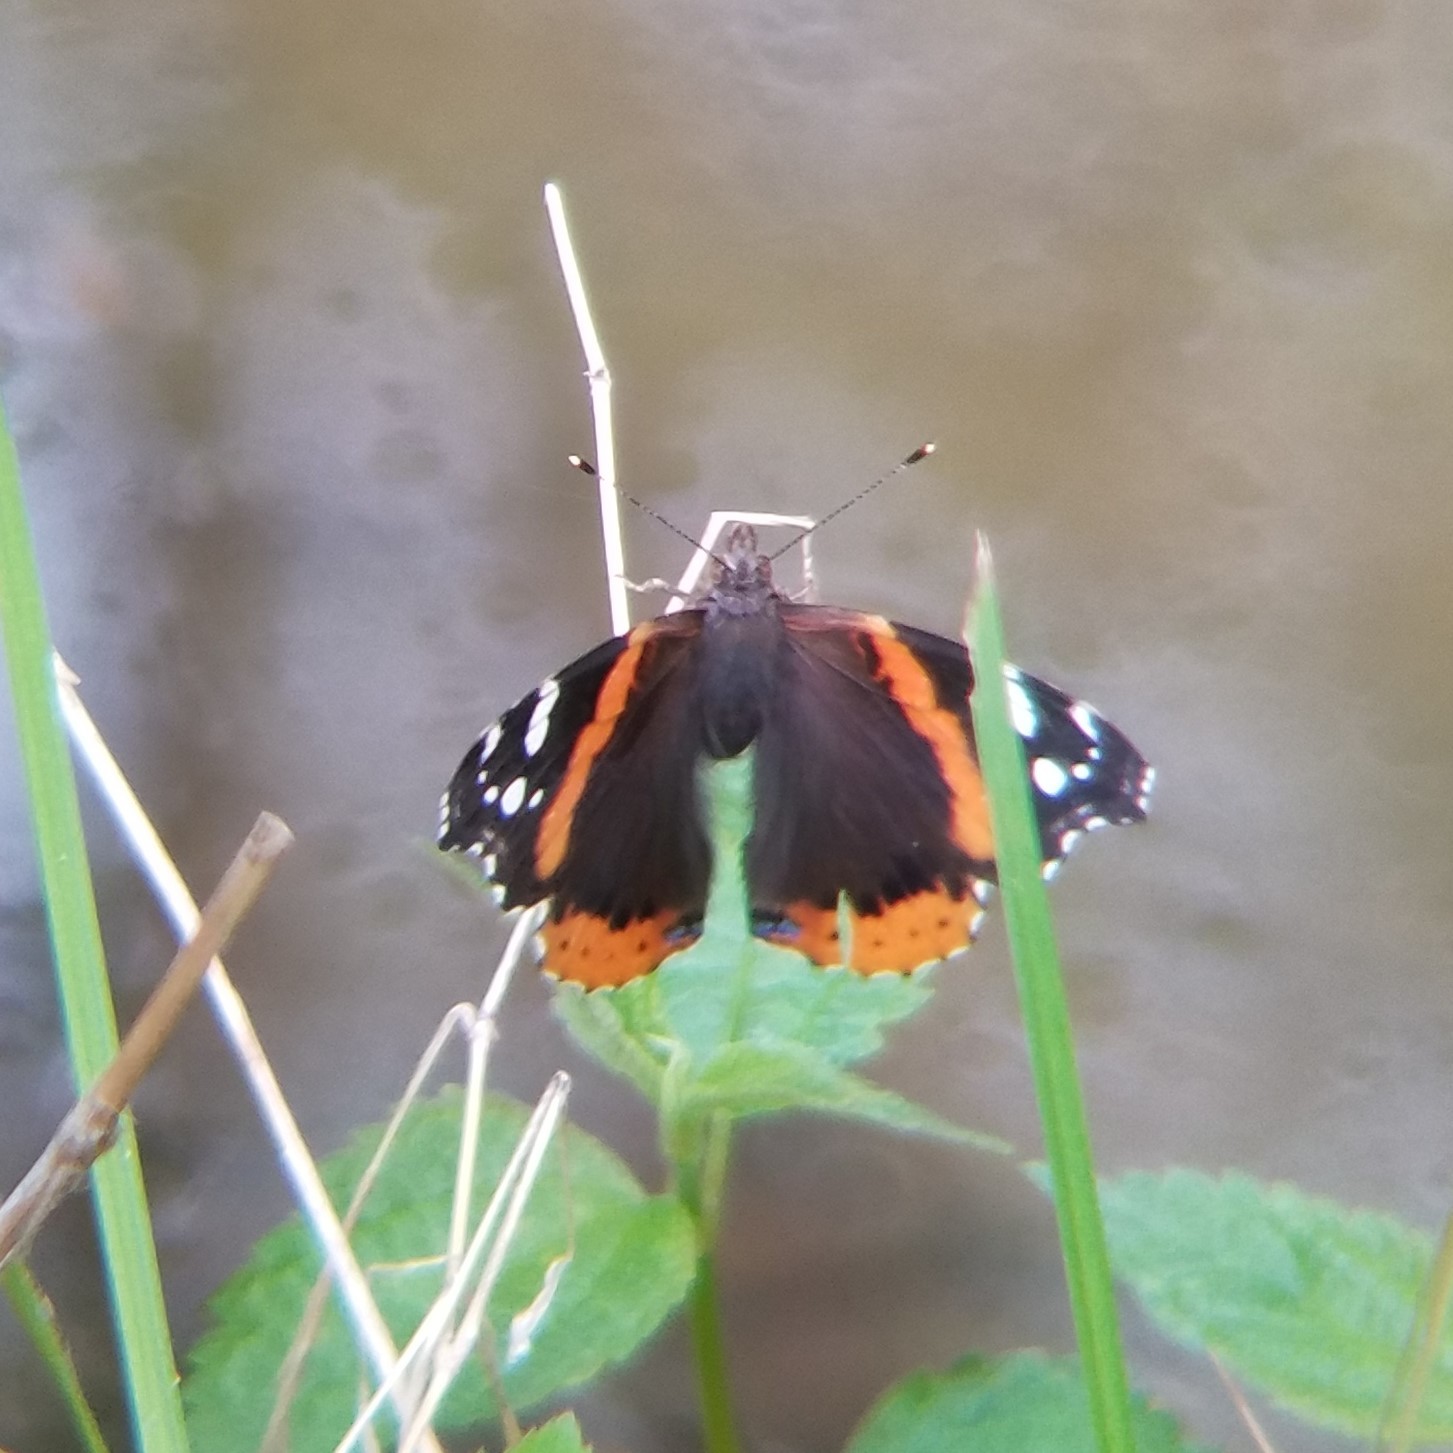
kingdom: Animalia
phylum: Arthropoda
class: Insecta
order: Lepidoptera
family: Nymphalidae
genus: Vanessa
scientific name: Vanessa atalanta
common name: Red admiral
